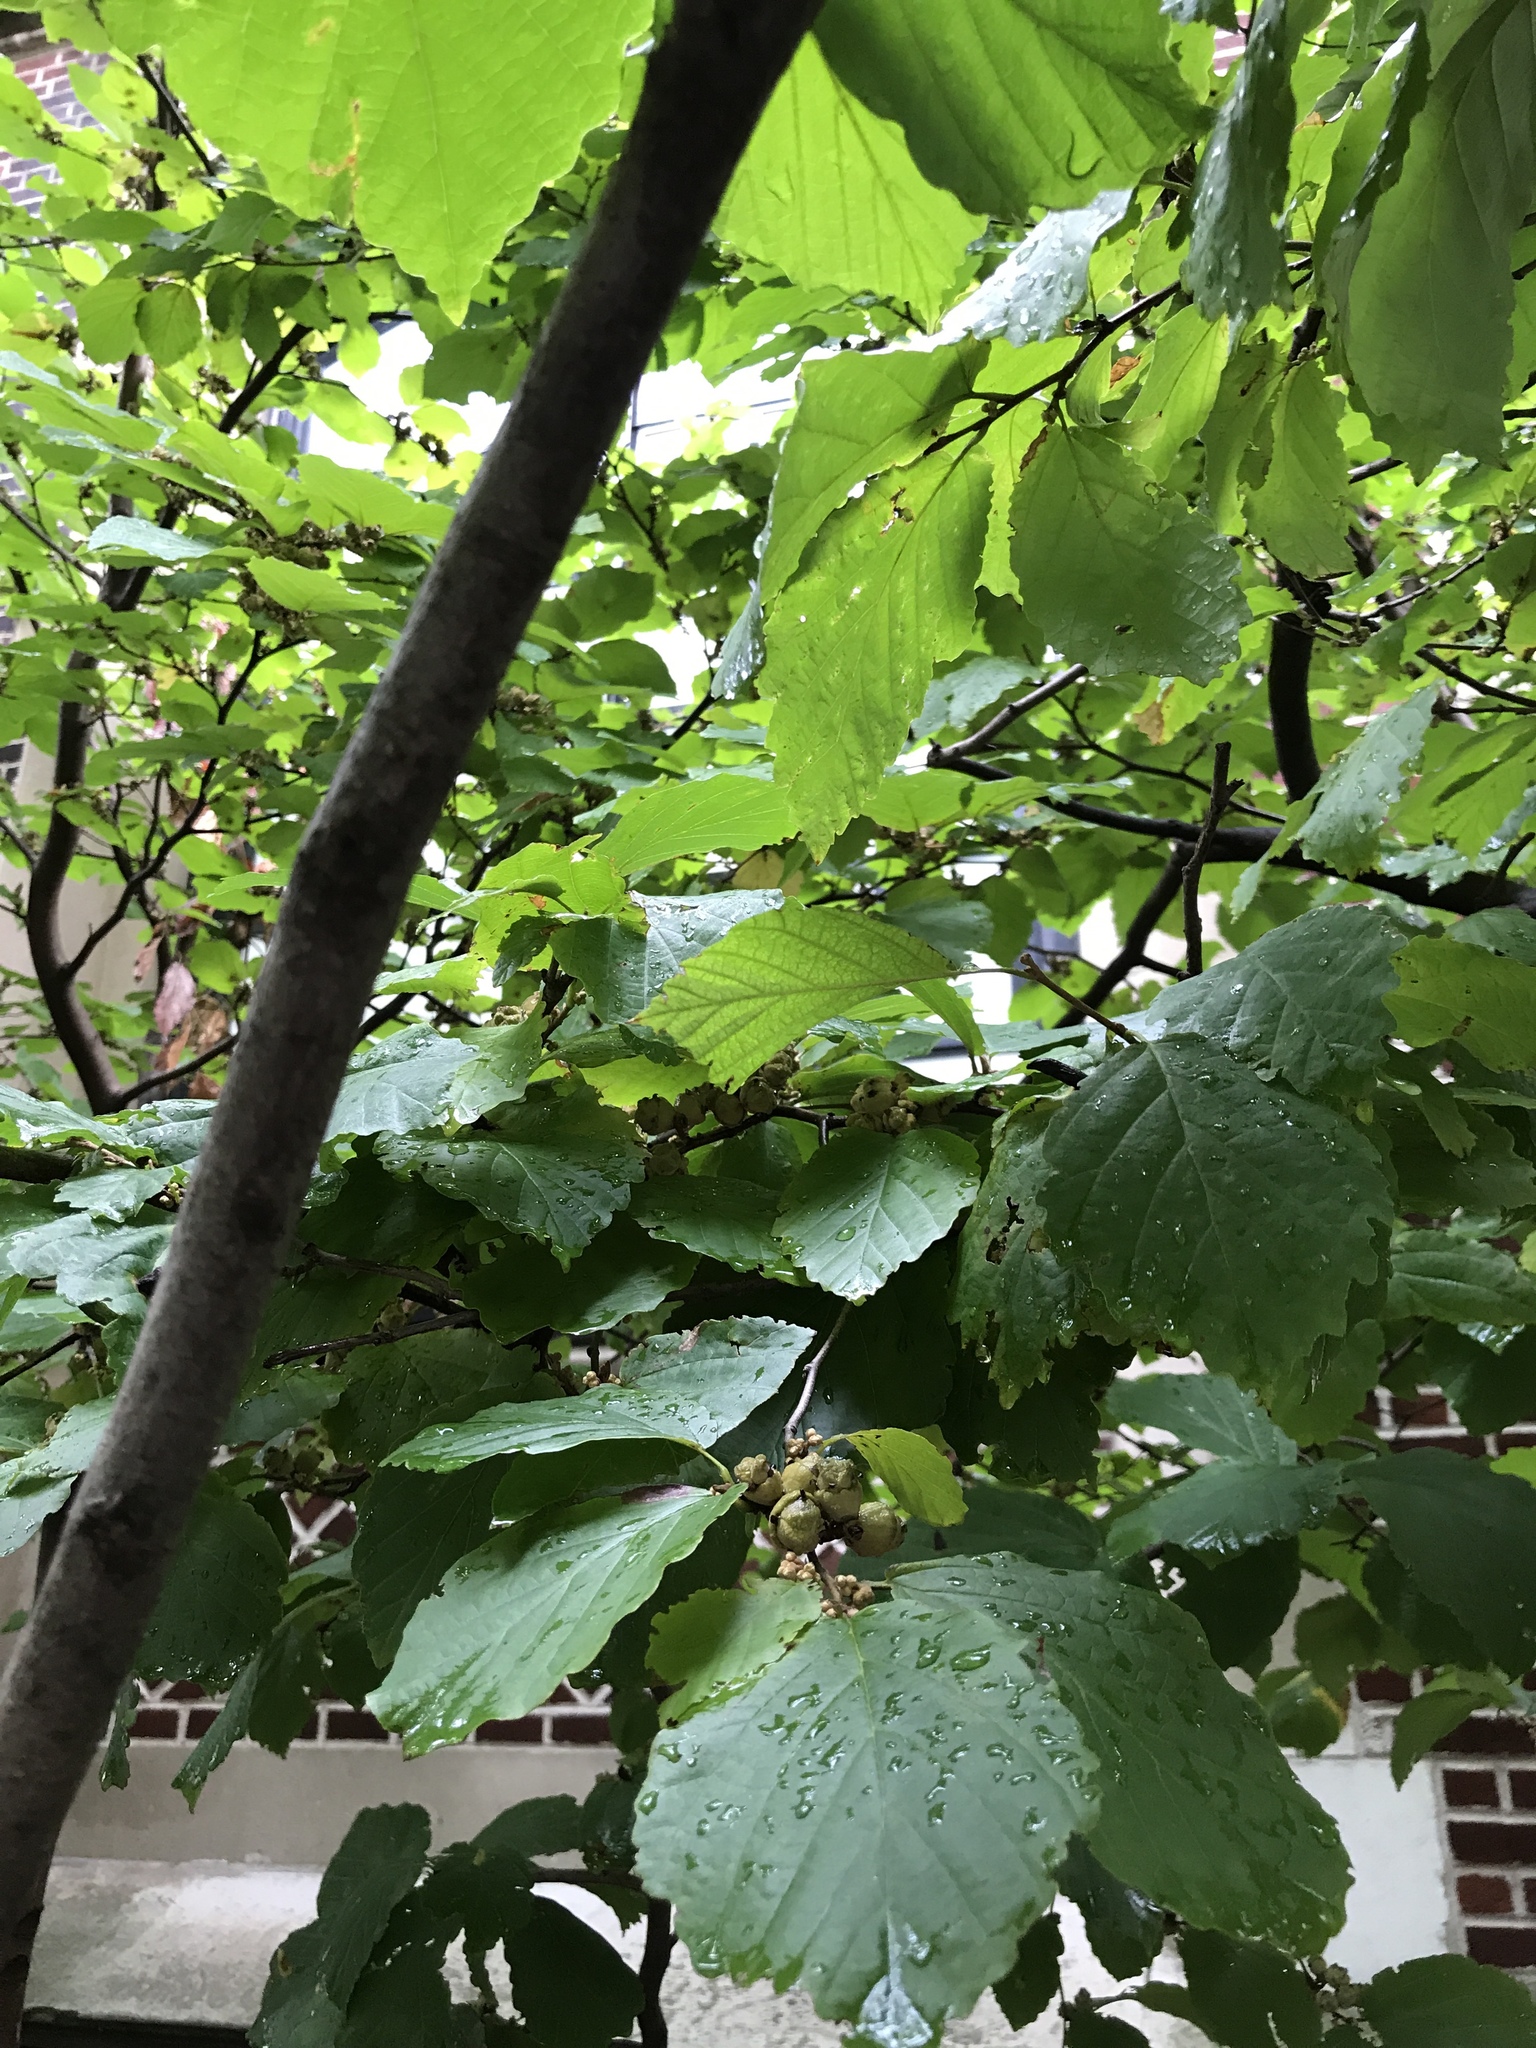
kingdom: Plantae
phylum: Tracheophyta
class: Magnoliopsida
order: Saxifragales
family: Hamamelidaceae
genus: Hamamelis
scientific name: Hamamelis virginiana
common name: Witch-hazel
